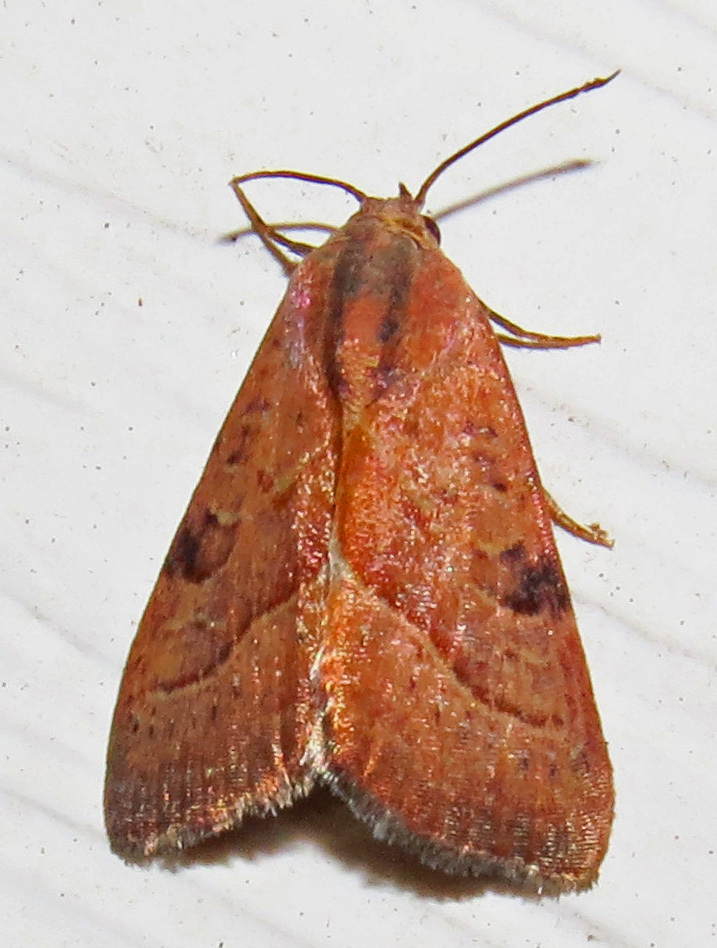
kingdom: Animalia
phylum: Arthropoda
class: Insecta
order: Lepidoptera
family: Noctuidae
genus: Galgula
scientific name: Galgula partita
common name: Wedgeling
